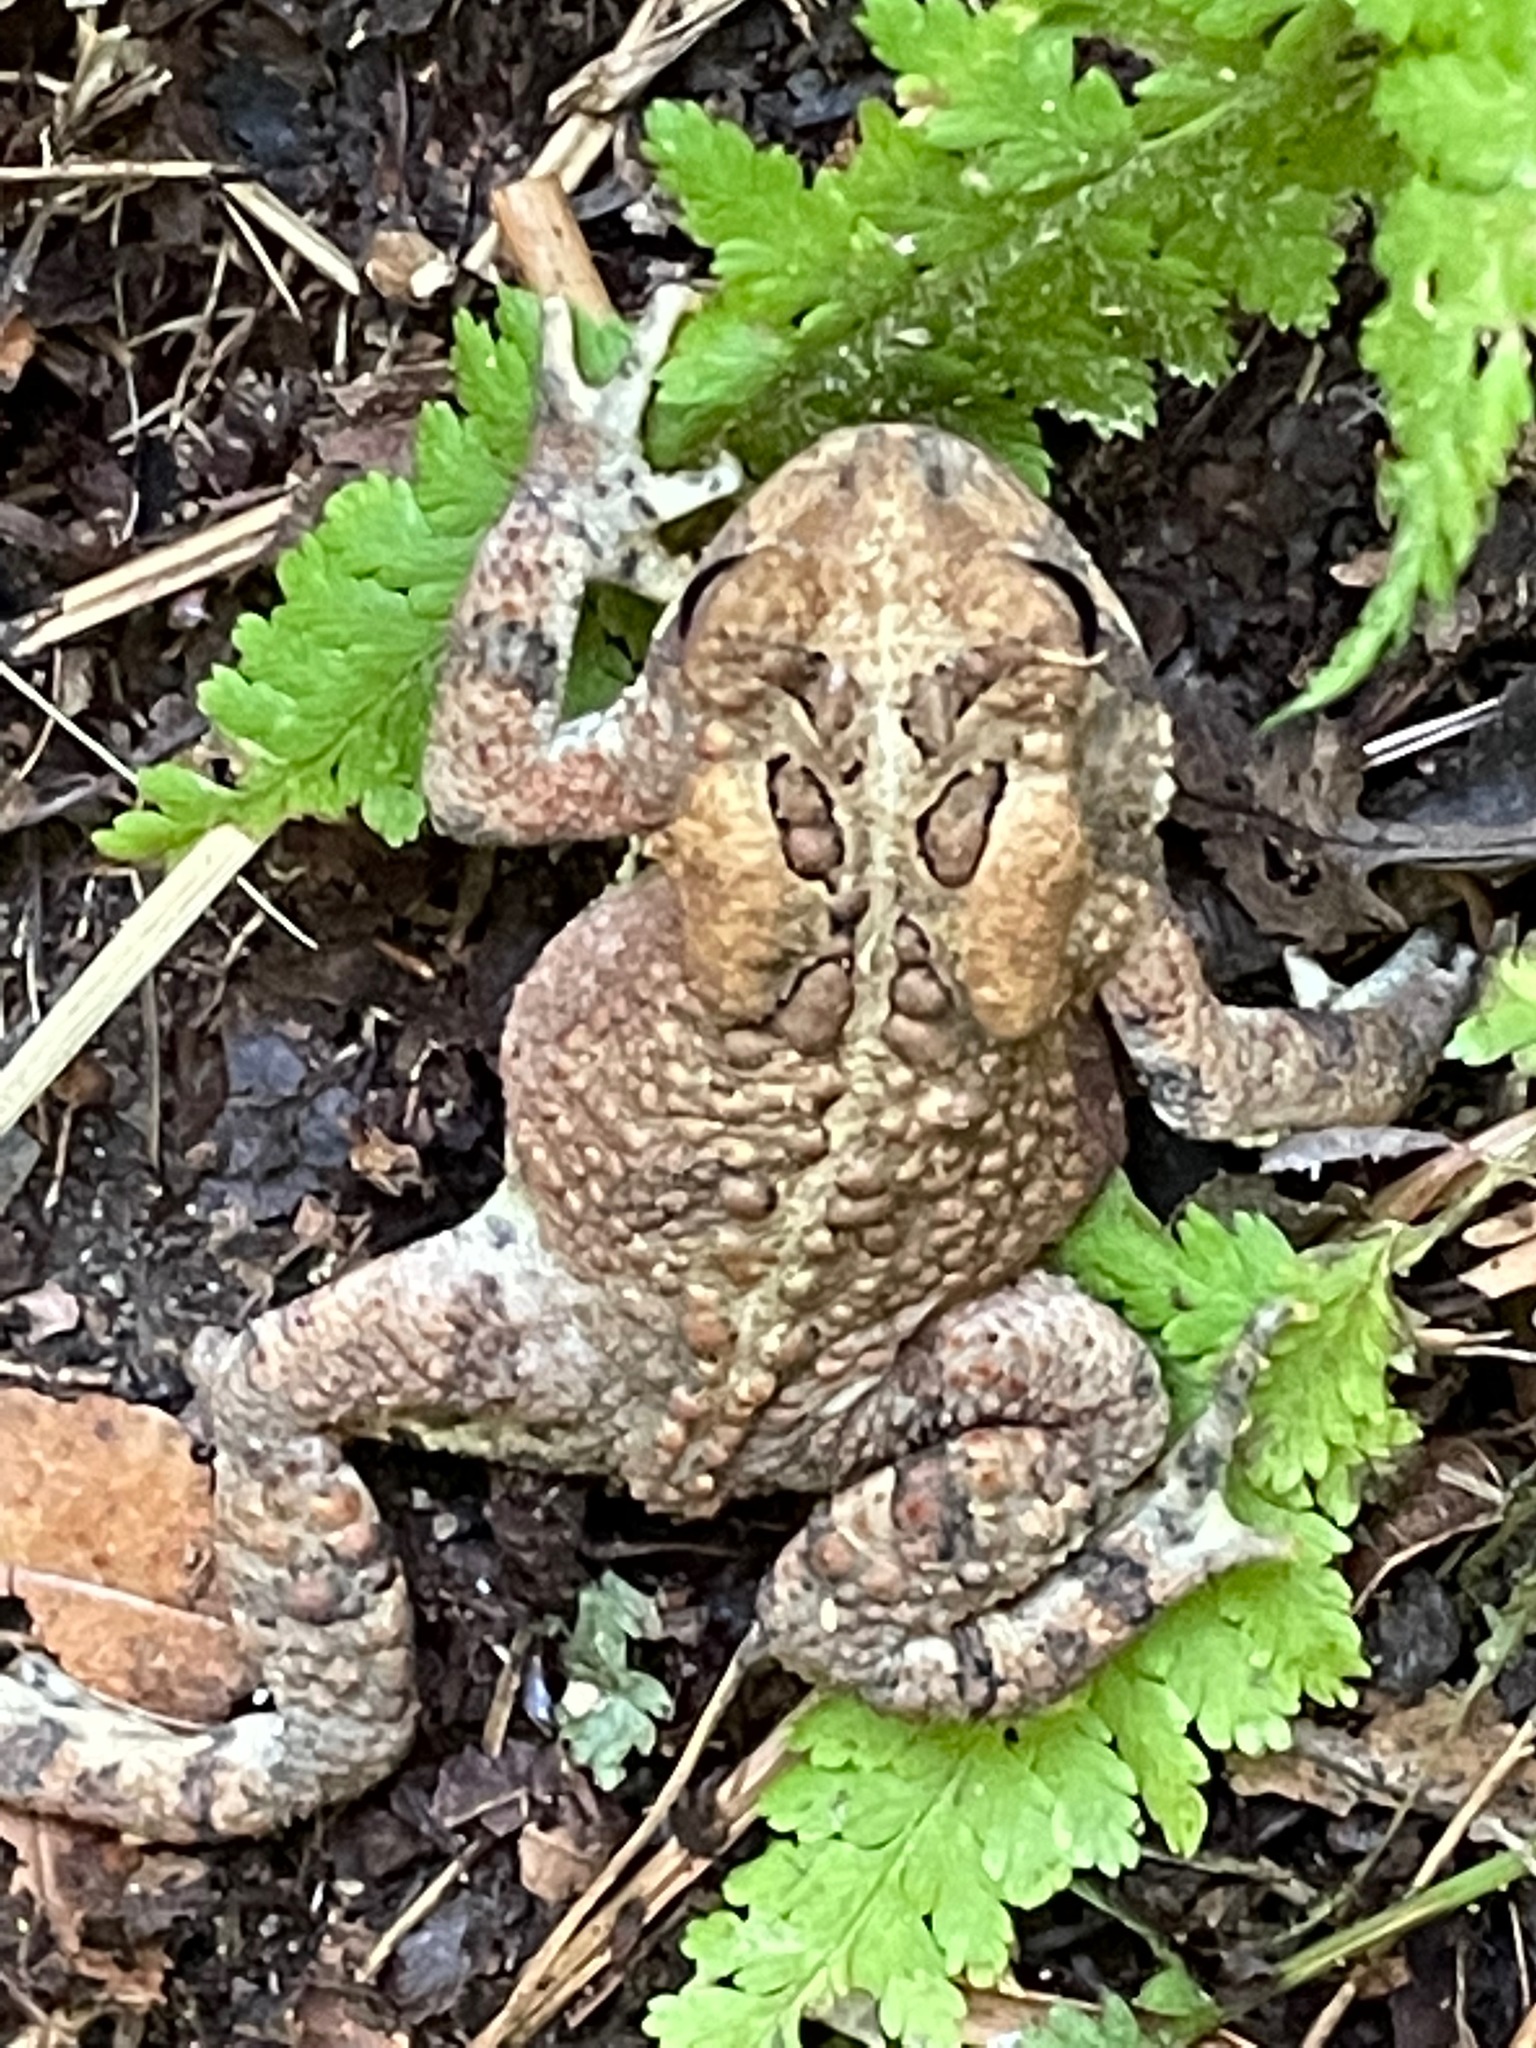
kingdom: Animalia
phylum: Chordata
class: Amphibia
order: Anura
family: Bufonidae
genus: Anaxyrus
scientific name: Anaxyrus americanus
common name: American toad
